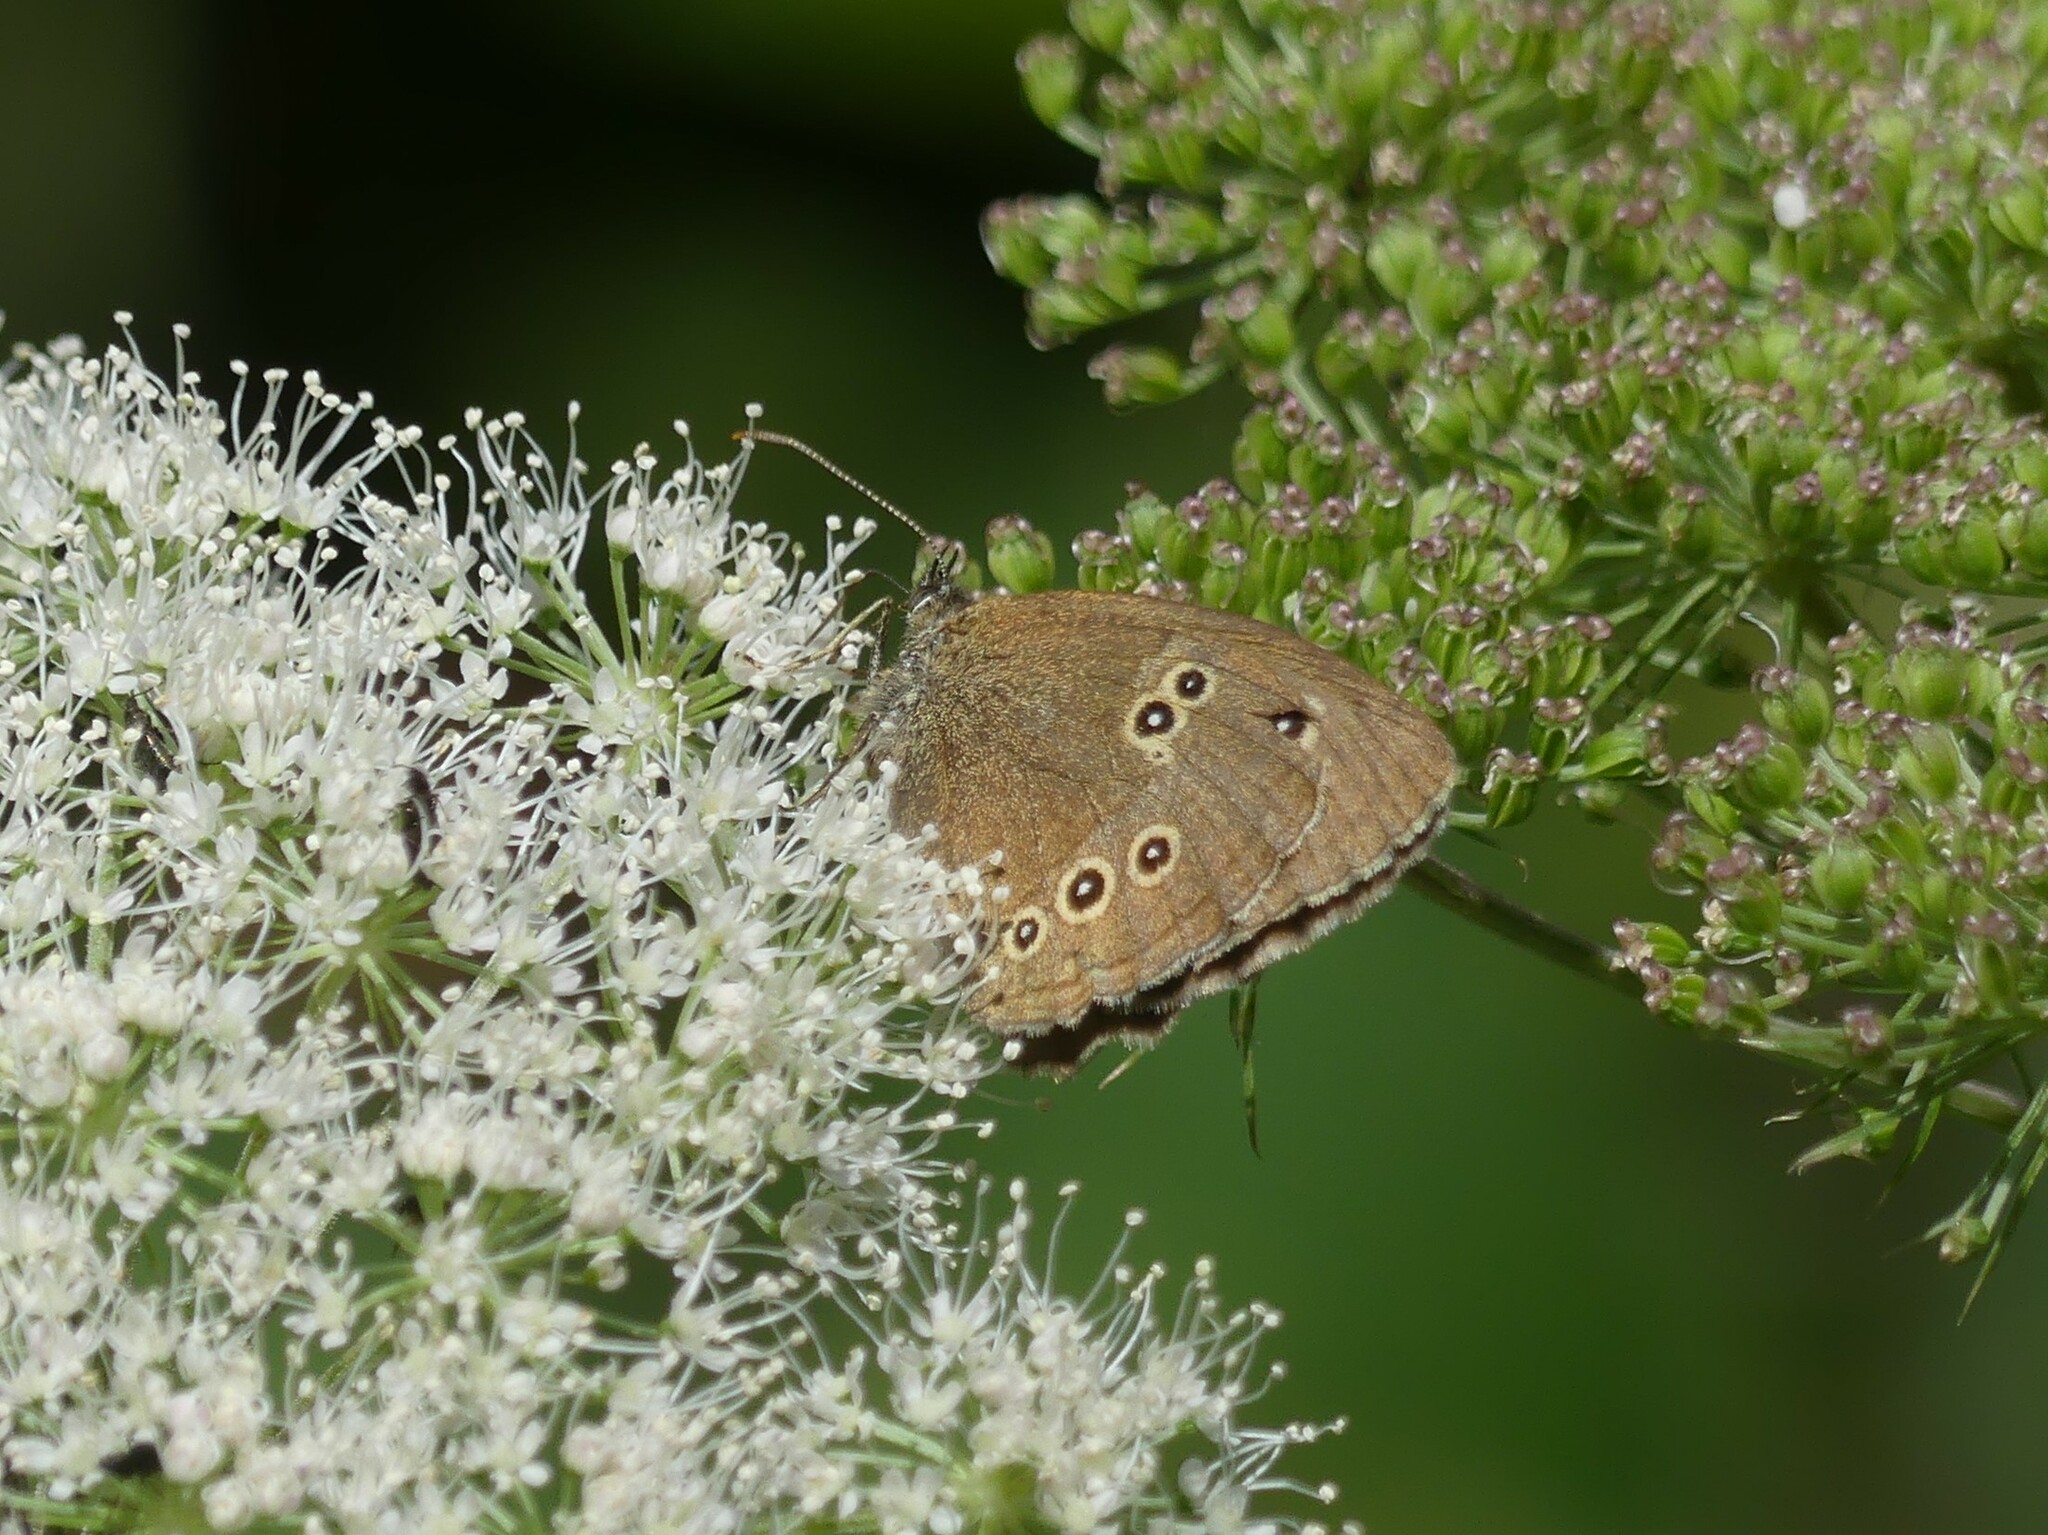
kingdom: Animalia
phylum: Arthropoda
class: Insecta
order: Lepidoptera
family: Nymphalidae
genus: Aphantopus
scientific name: Aphantopus hyperantus
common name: Ringlet
